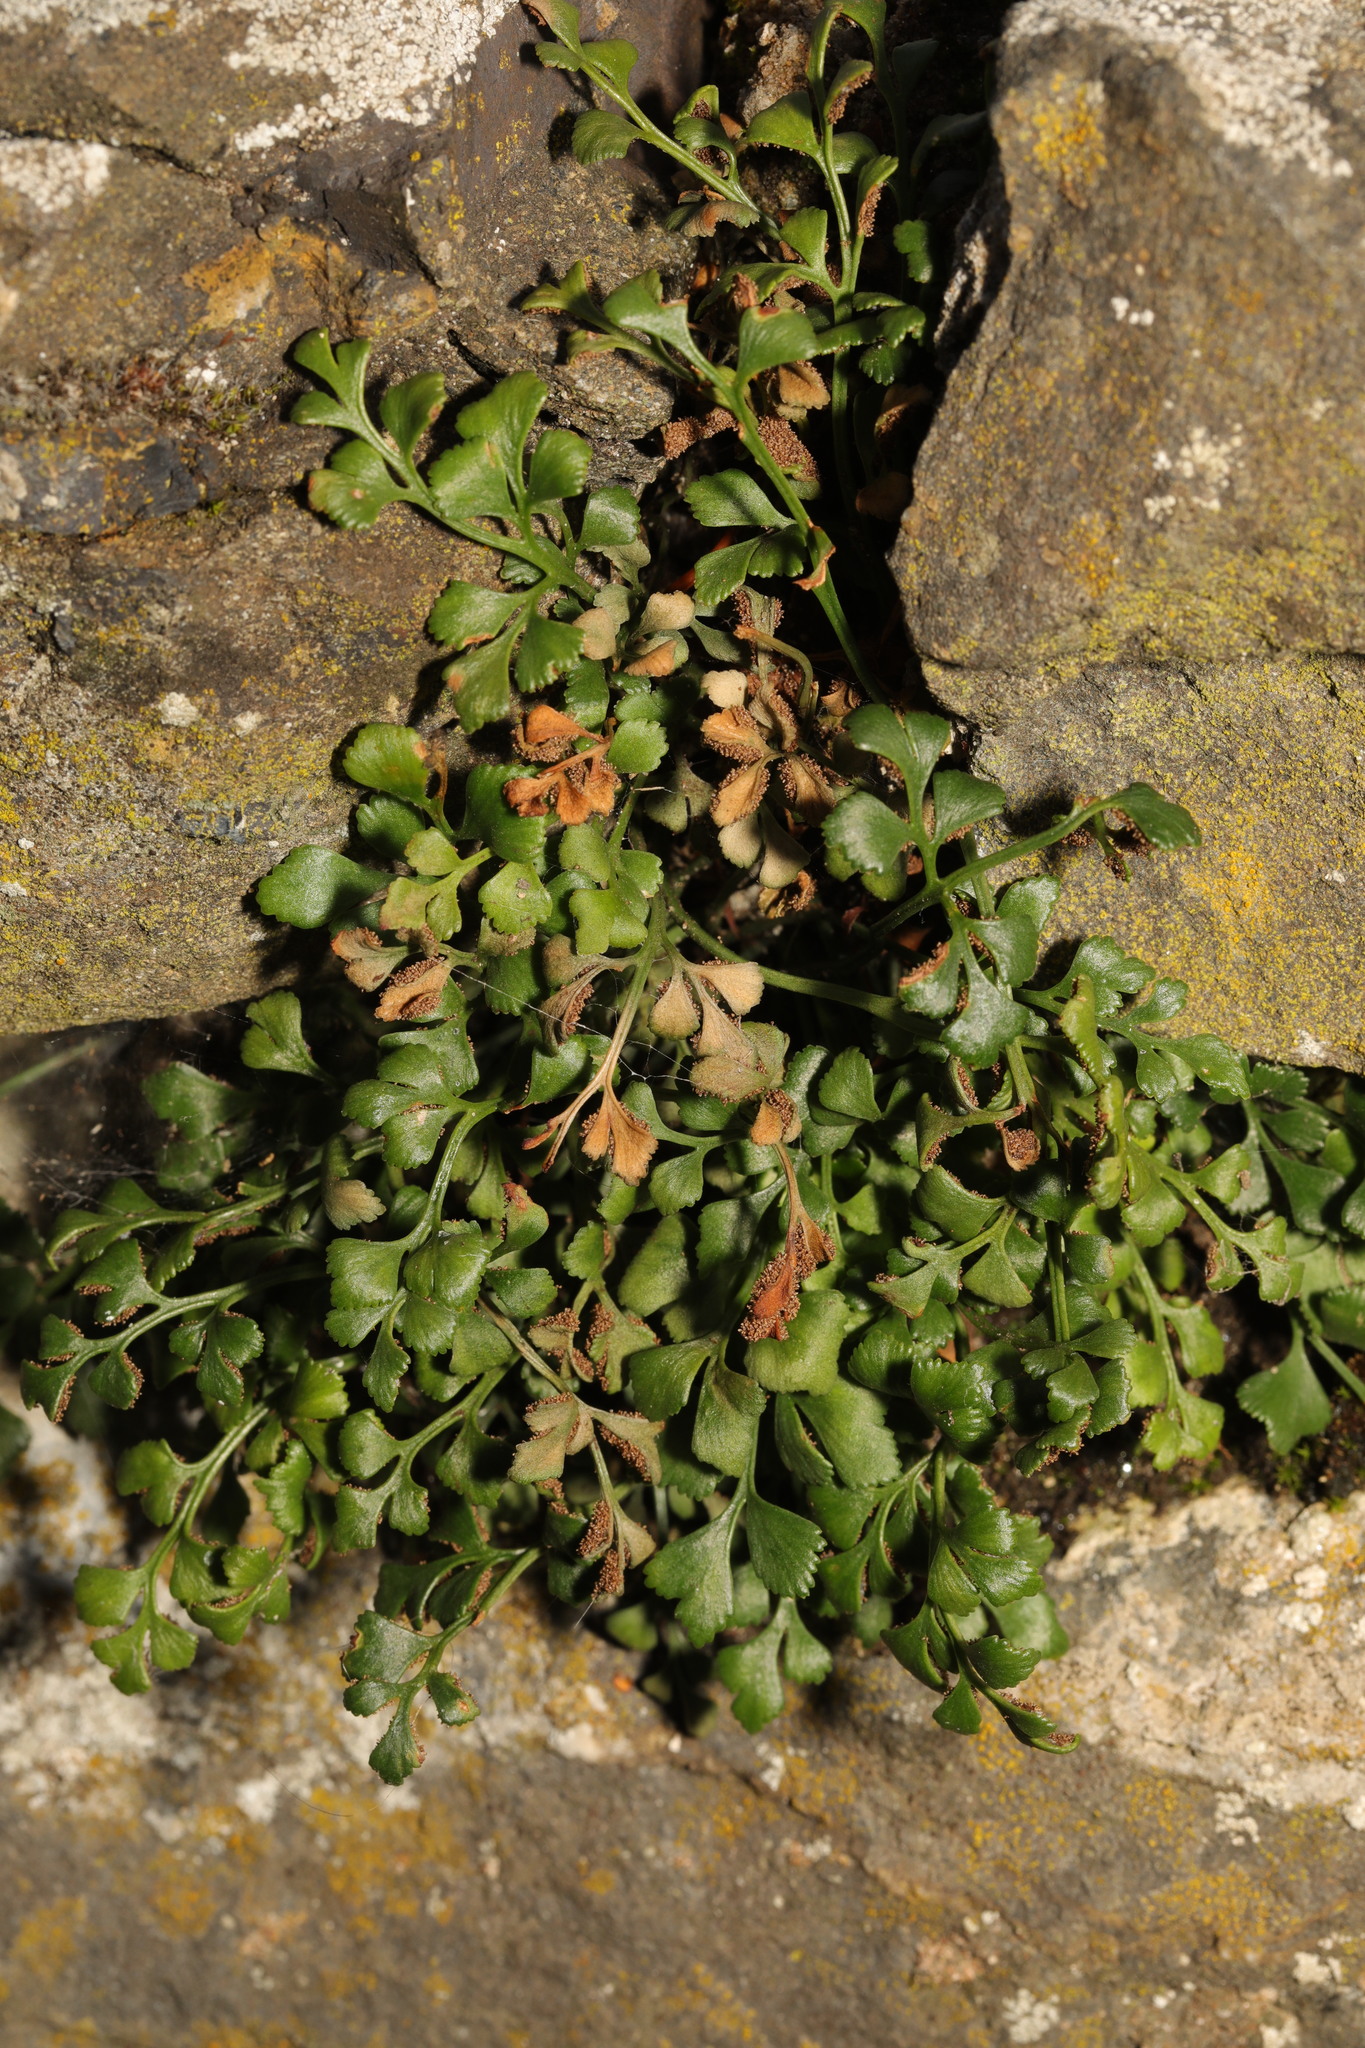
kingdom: Plantae
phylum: Tracheophyta
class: Polypodiopsida
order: Polypodiales
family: Aspleniaceae
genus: Asplenium
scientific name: Asplenium ruta-muraria
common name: Wall-rue
